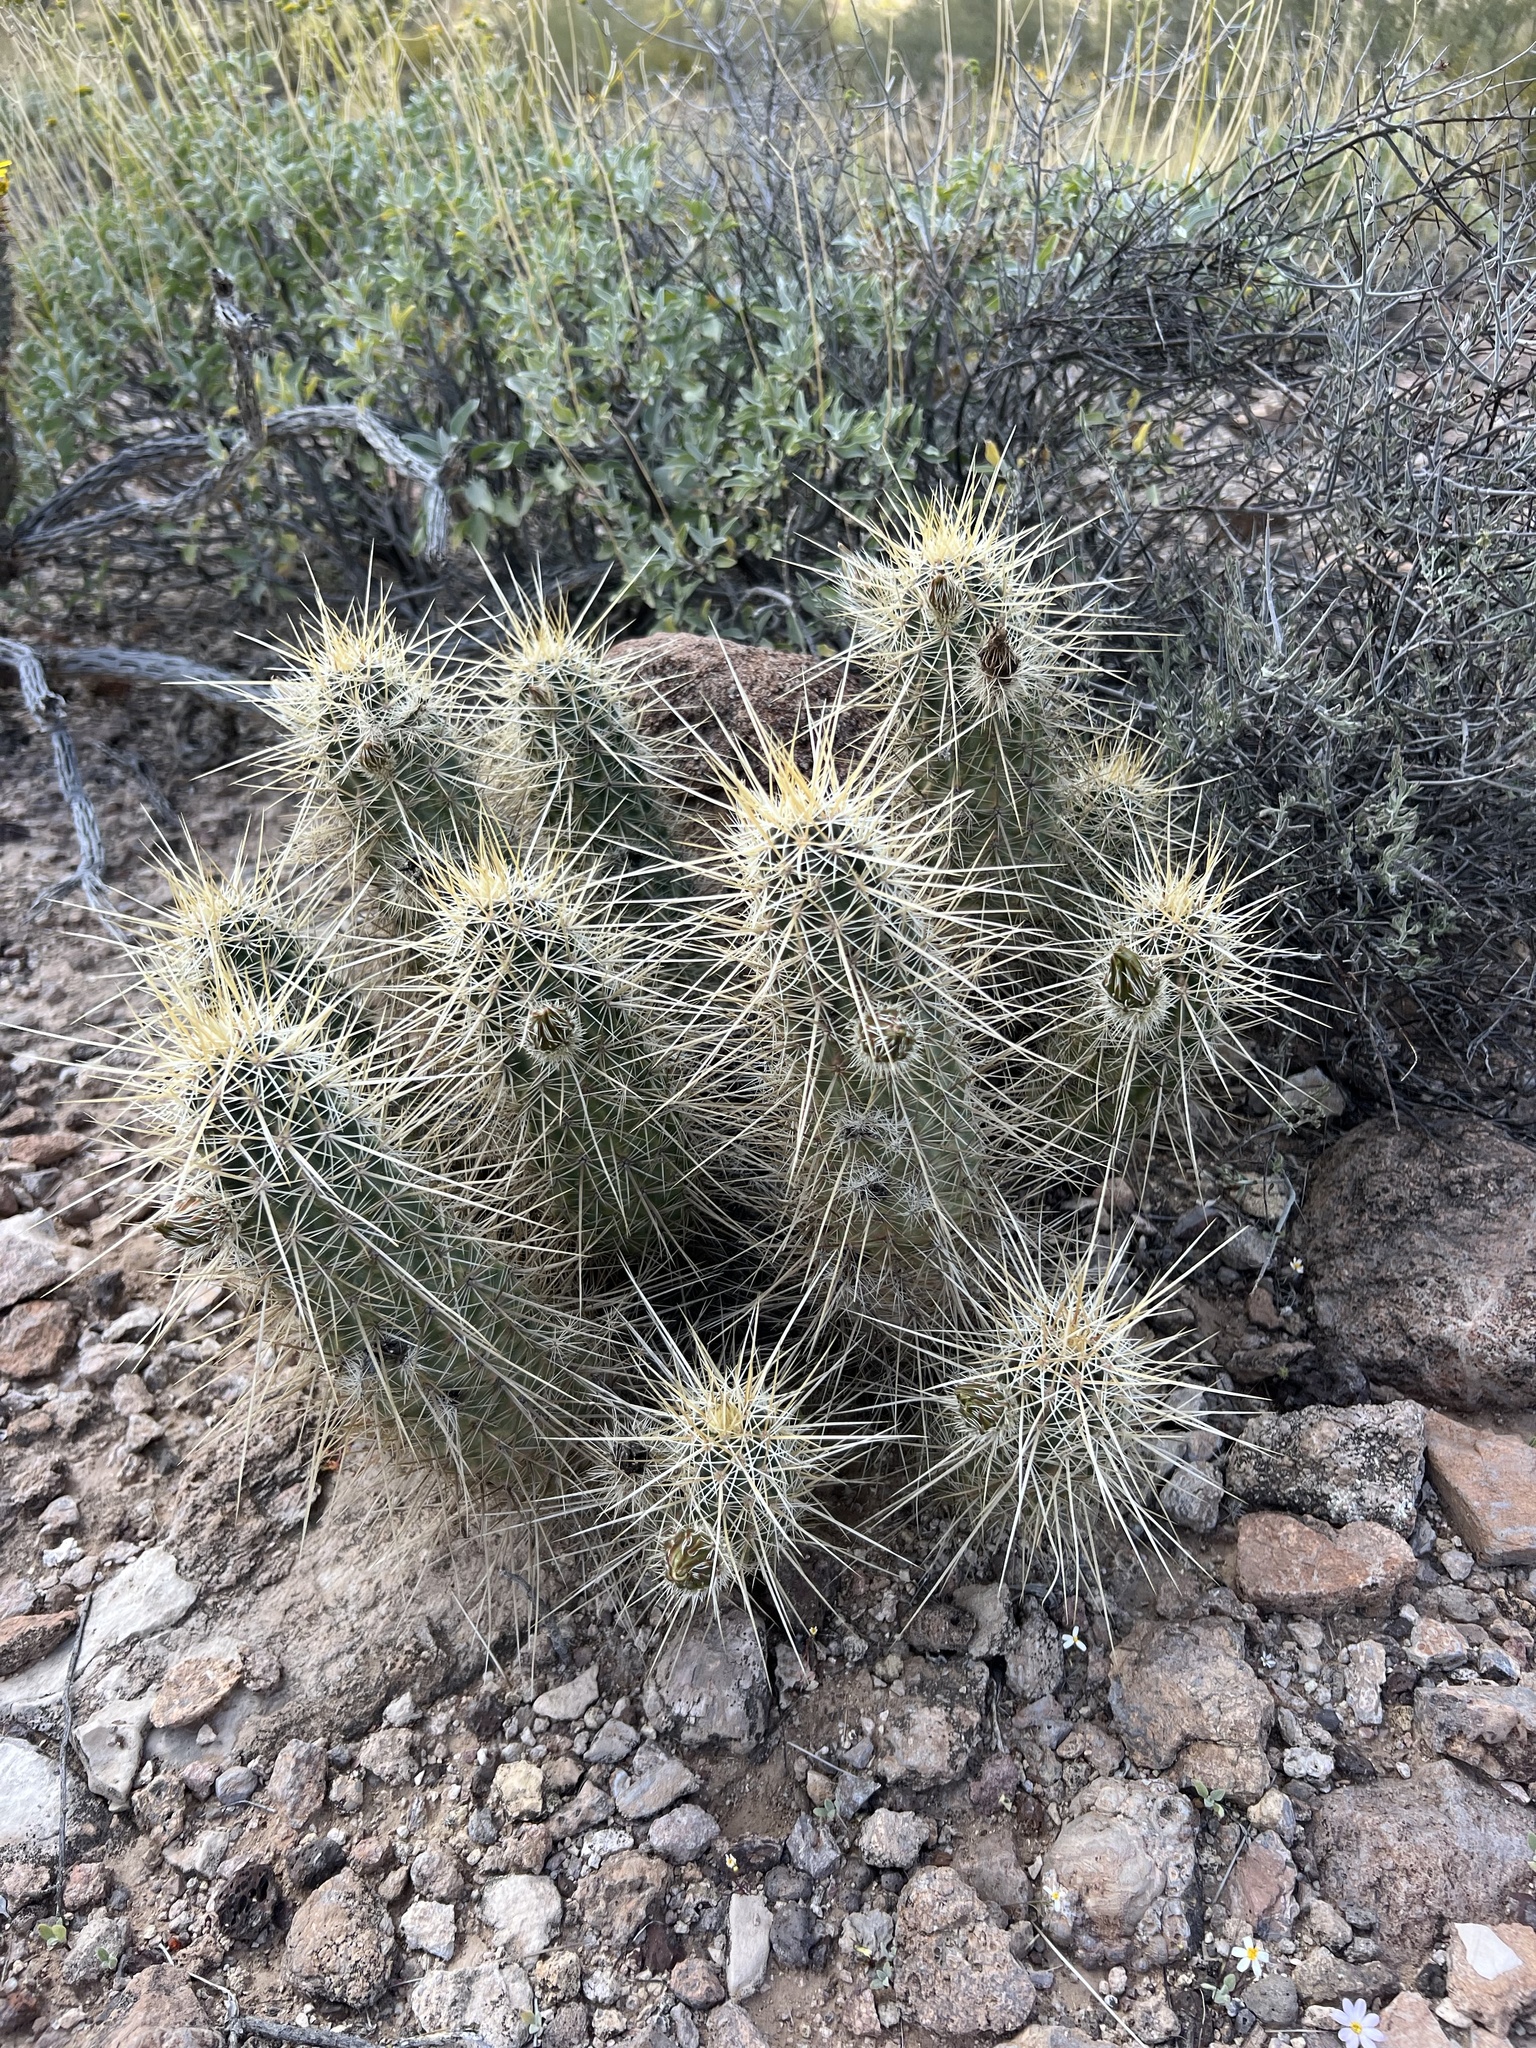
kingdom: Plantae
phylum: Tracheophyta
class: Magnoliopsida
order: Caryophyllales
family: Cactaceae
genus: Echinocereus
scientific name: Echinocereus nicholii
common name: Nichol's hedgehog cactus
